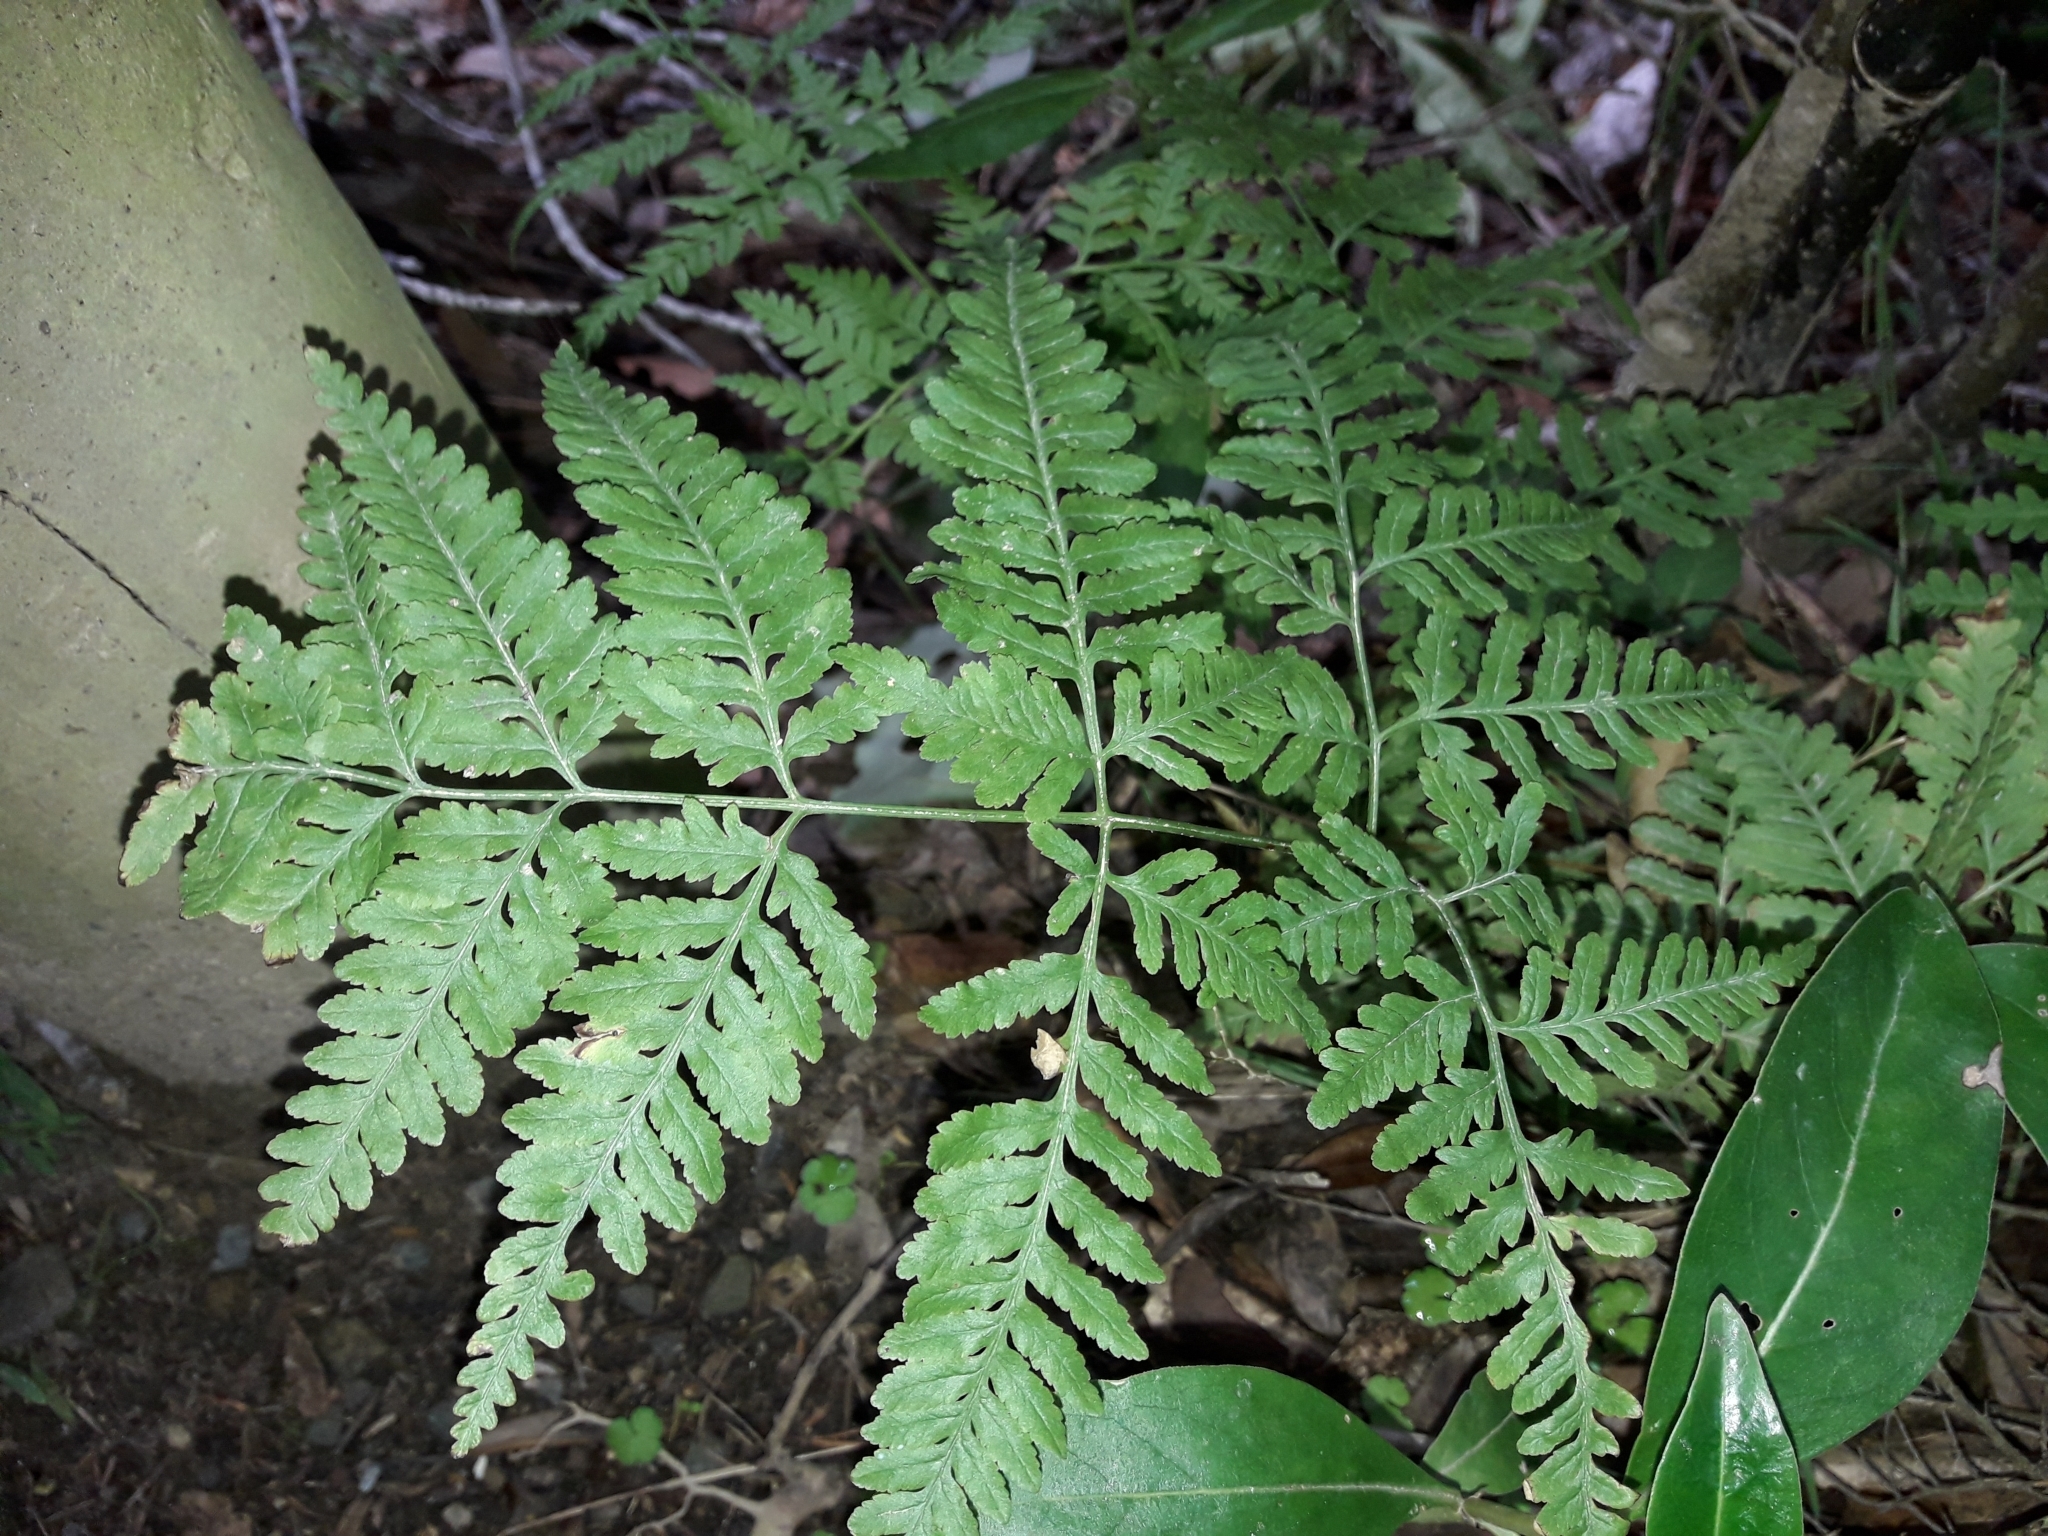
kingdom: Plantae
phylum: Tracheophyta
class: Polypodiopsida
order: Polypodiales
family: Pteridaceae
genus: Pteris
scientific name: Pteris tremula
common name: Australian brake
